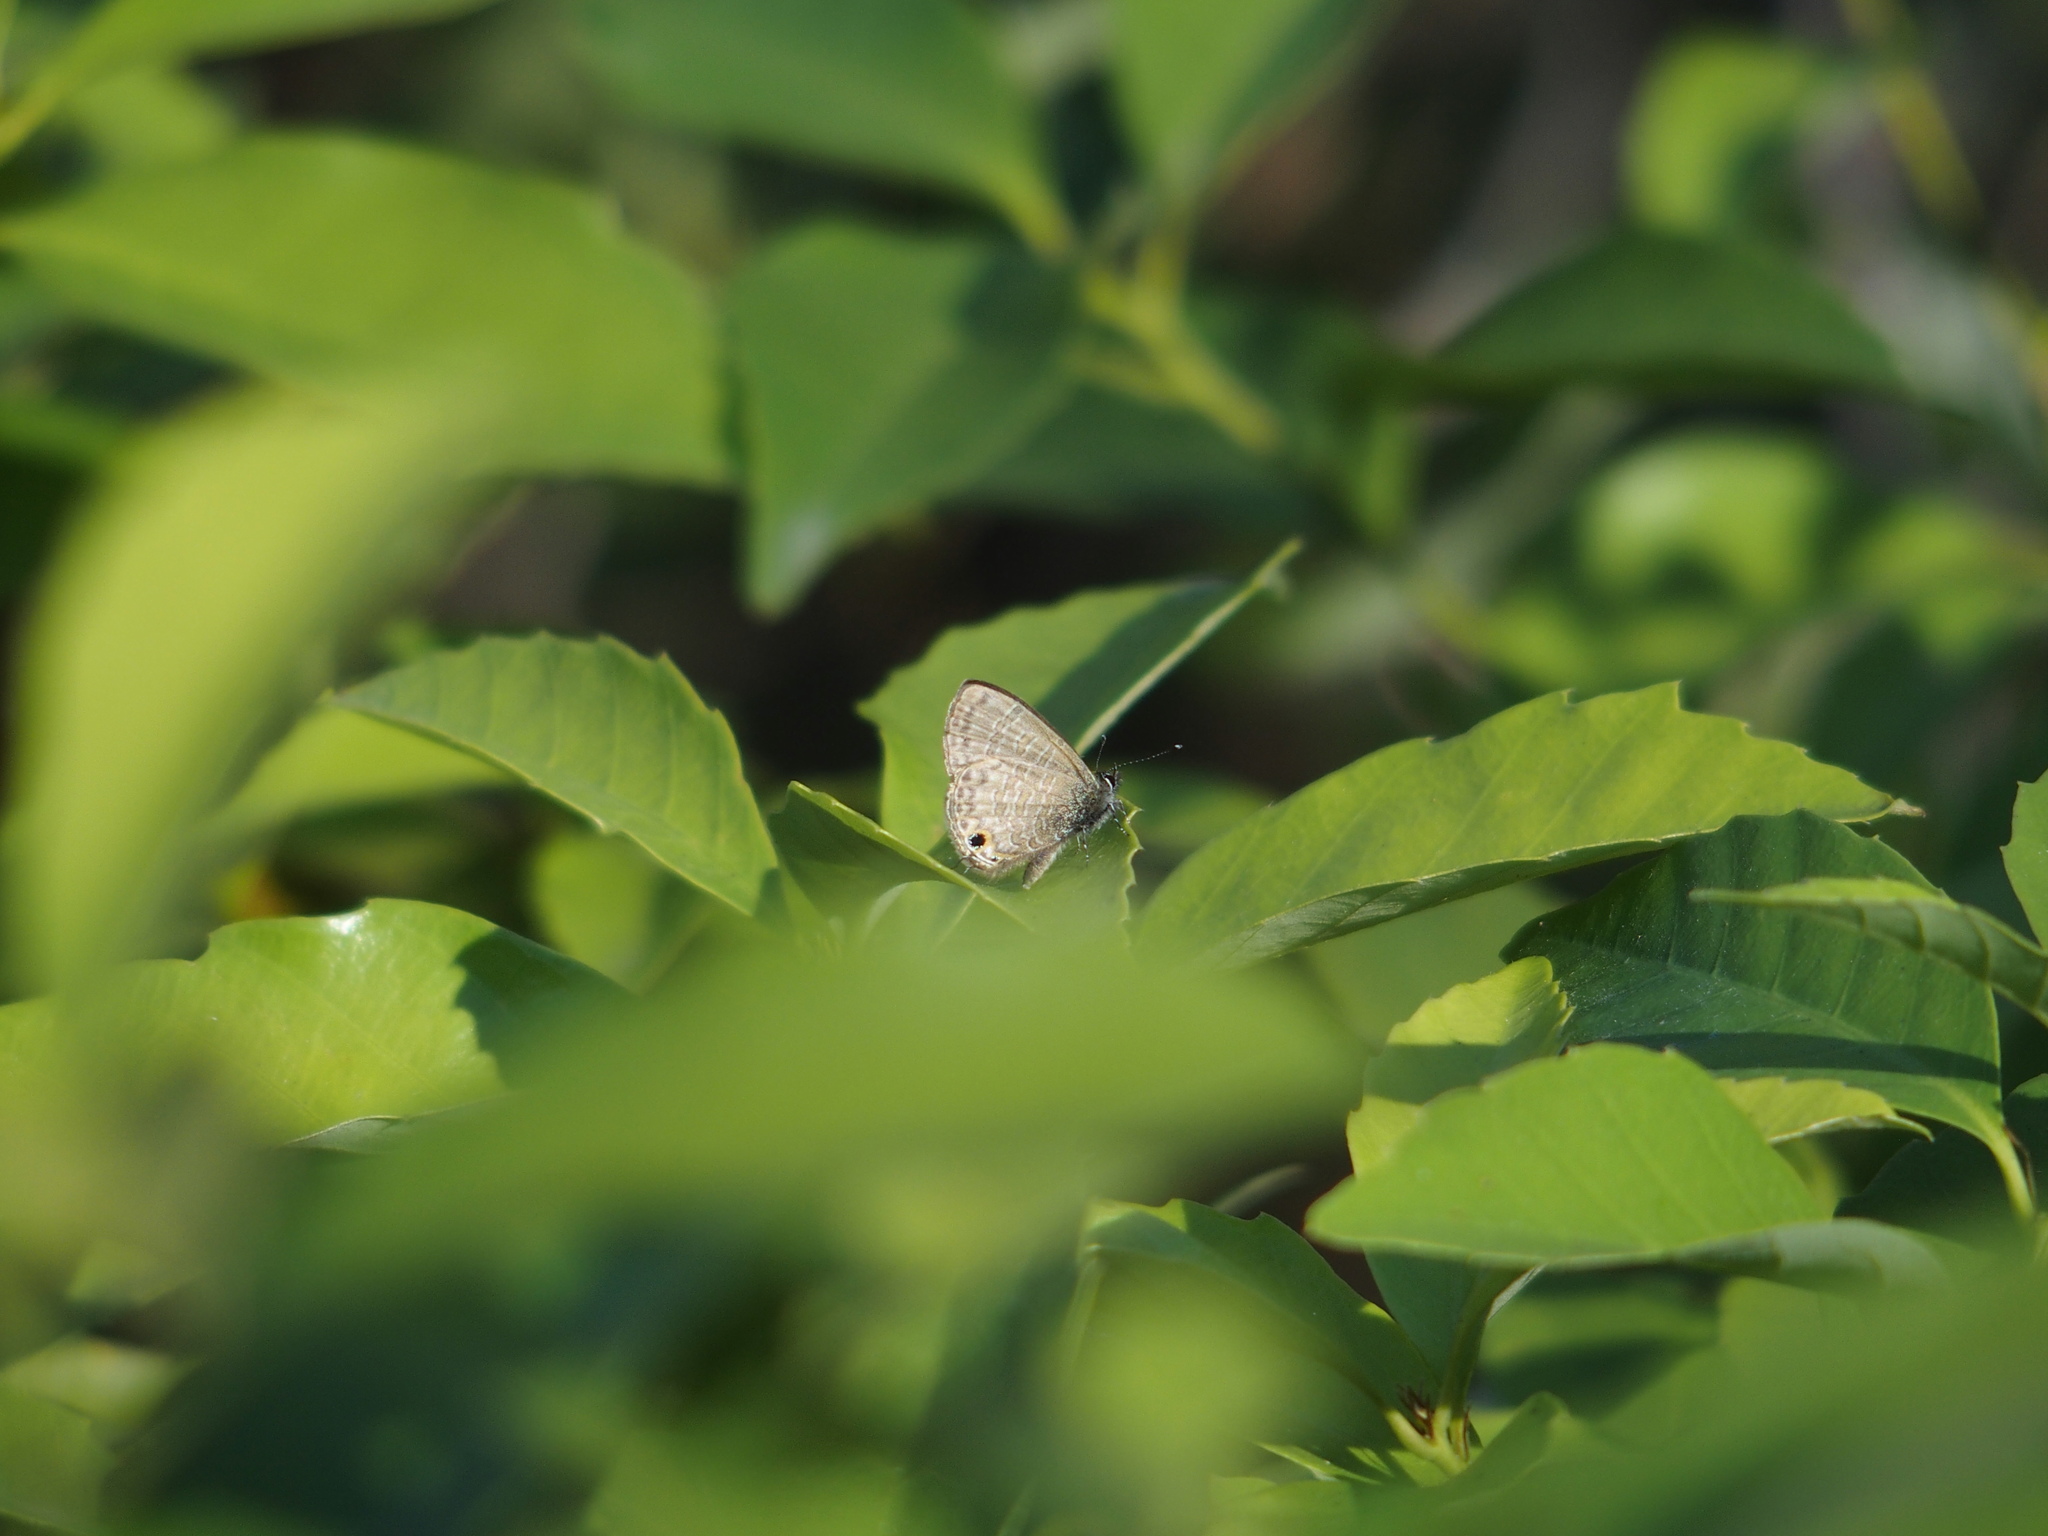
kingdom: Animalia
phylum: Arthropoda
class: Insecta
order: Lepidoptera
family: Lycaenidae
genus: Prosotas
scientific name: Prosotas nora
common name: Common line blue
